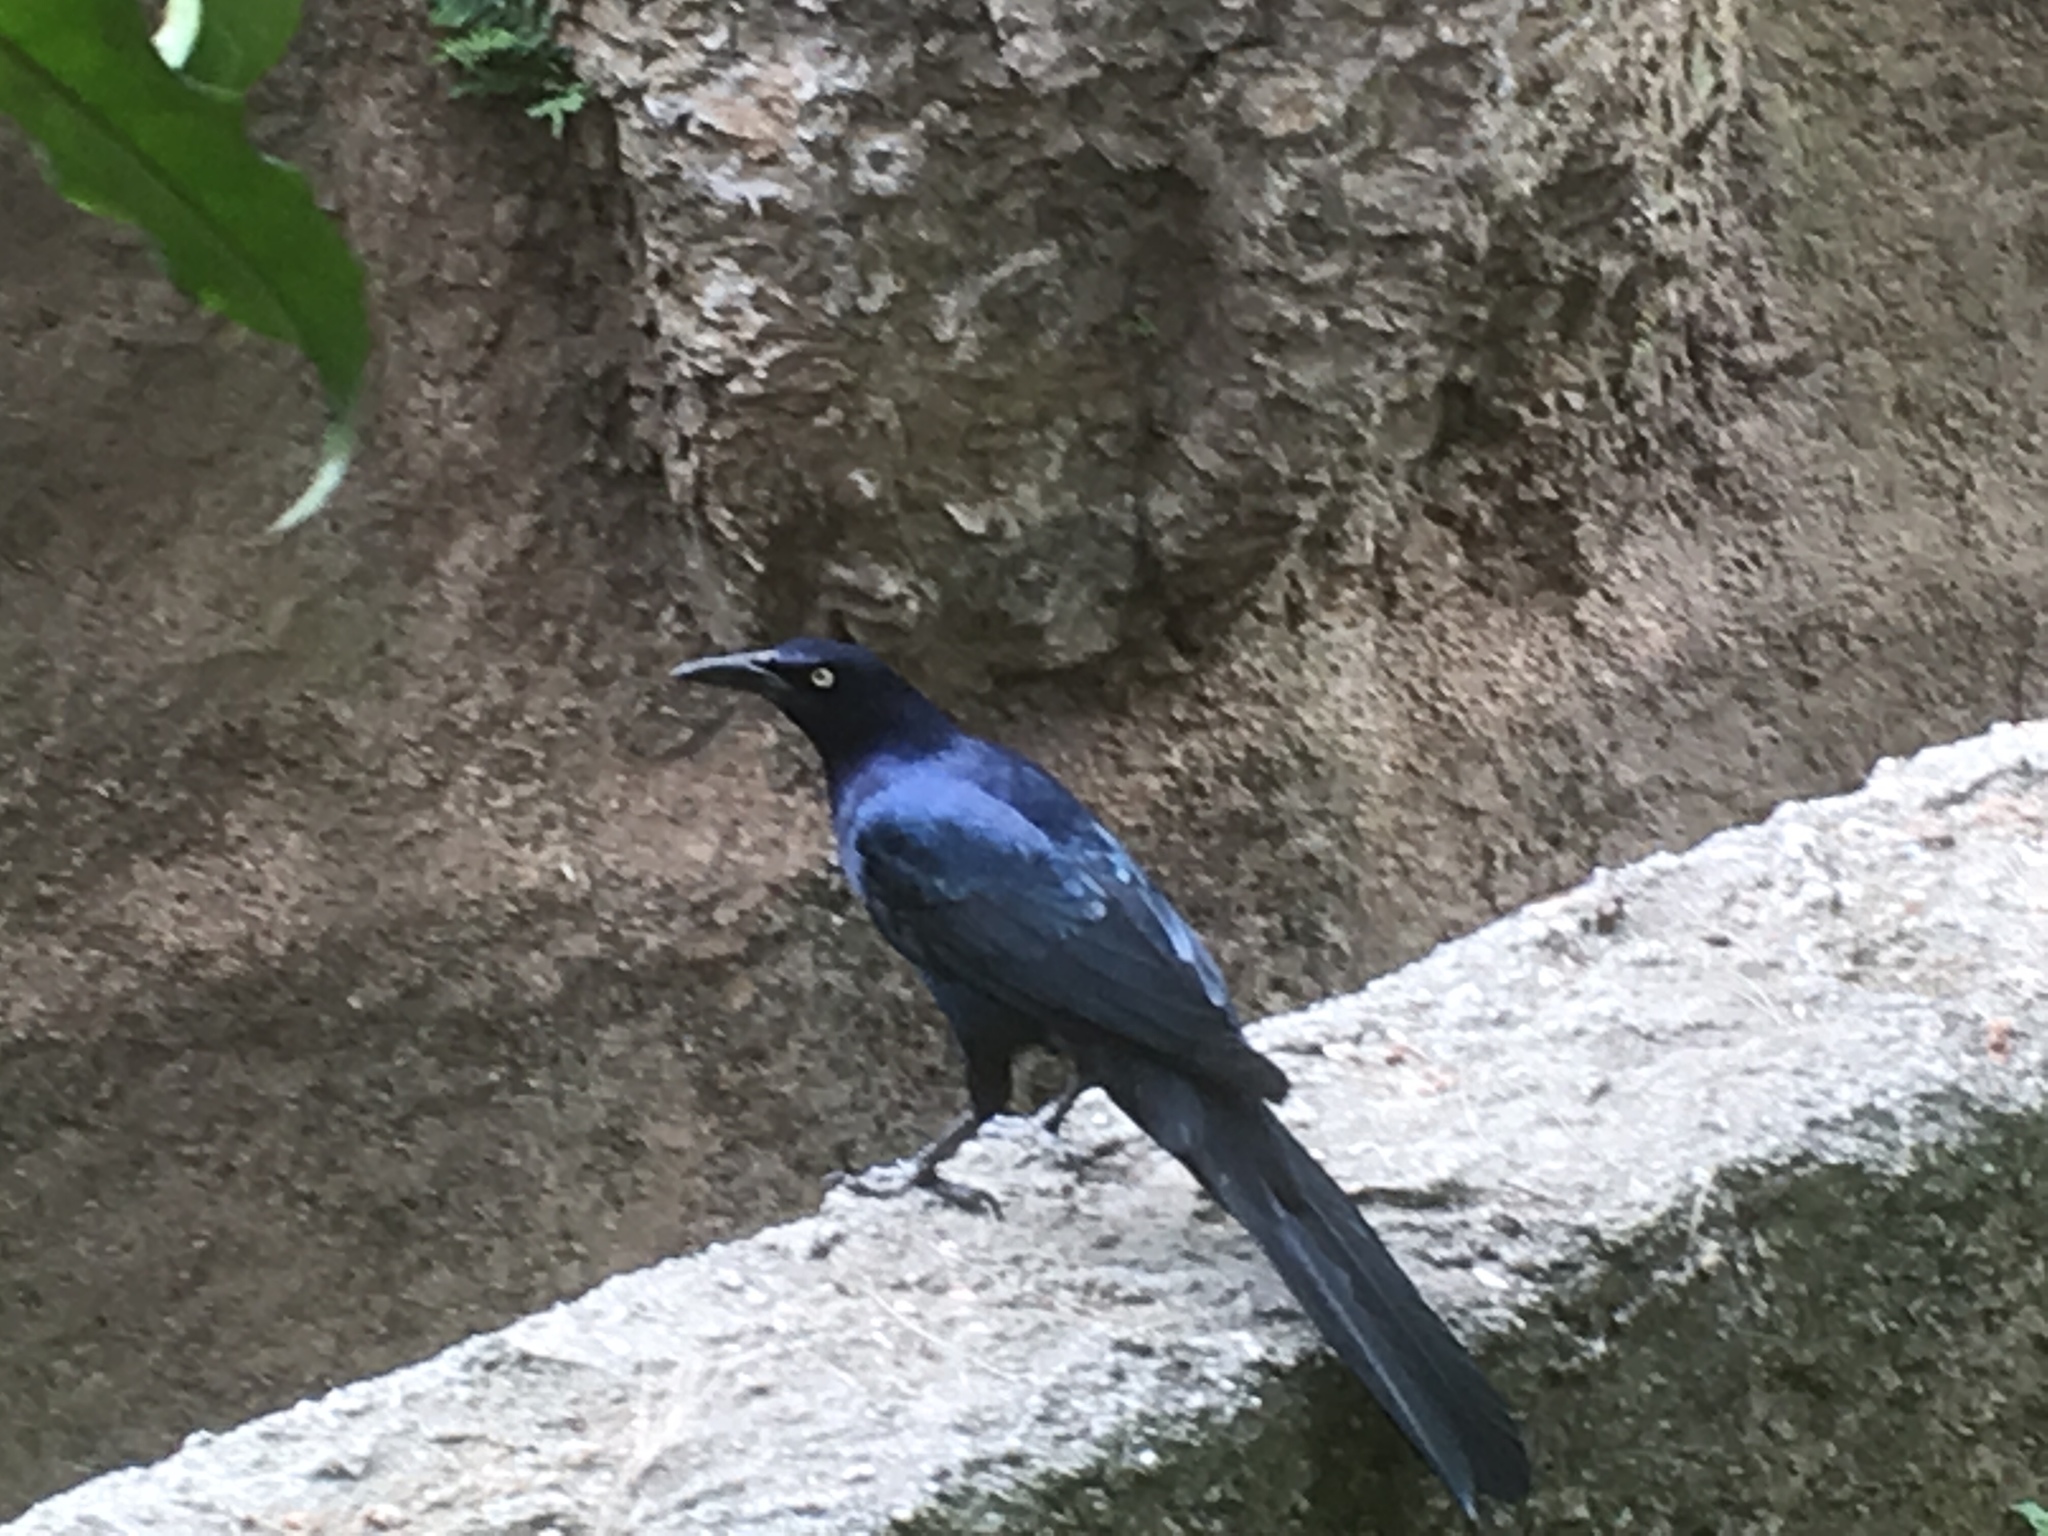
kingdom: Animalia
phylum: Chordata
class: Aves
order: Passeriformes
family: Icteridae
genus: Quiscalus
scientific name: Quiscalus mexicanus
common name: Great-tailed grackle
